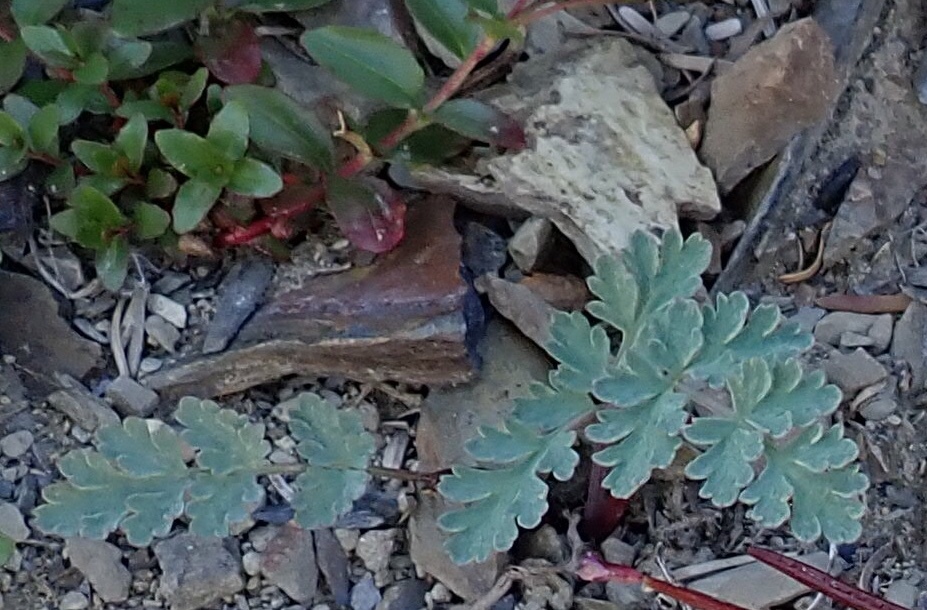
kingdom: Plantae
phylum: Tracheophyta
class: Magnoliopsida
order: Apiales
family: Apiaceae
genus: Lomatium
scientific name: Lomatium martindalei
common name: Cascade desert-parsley
